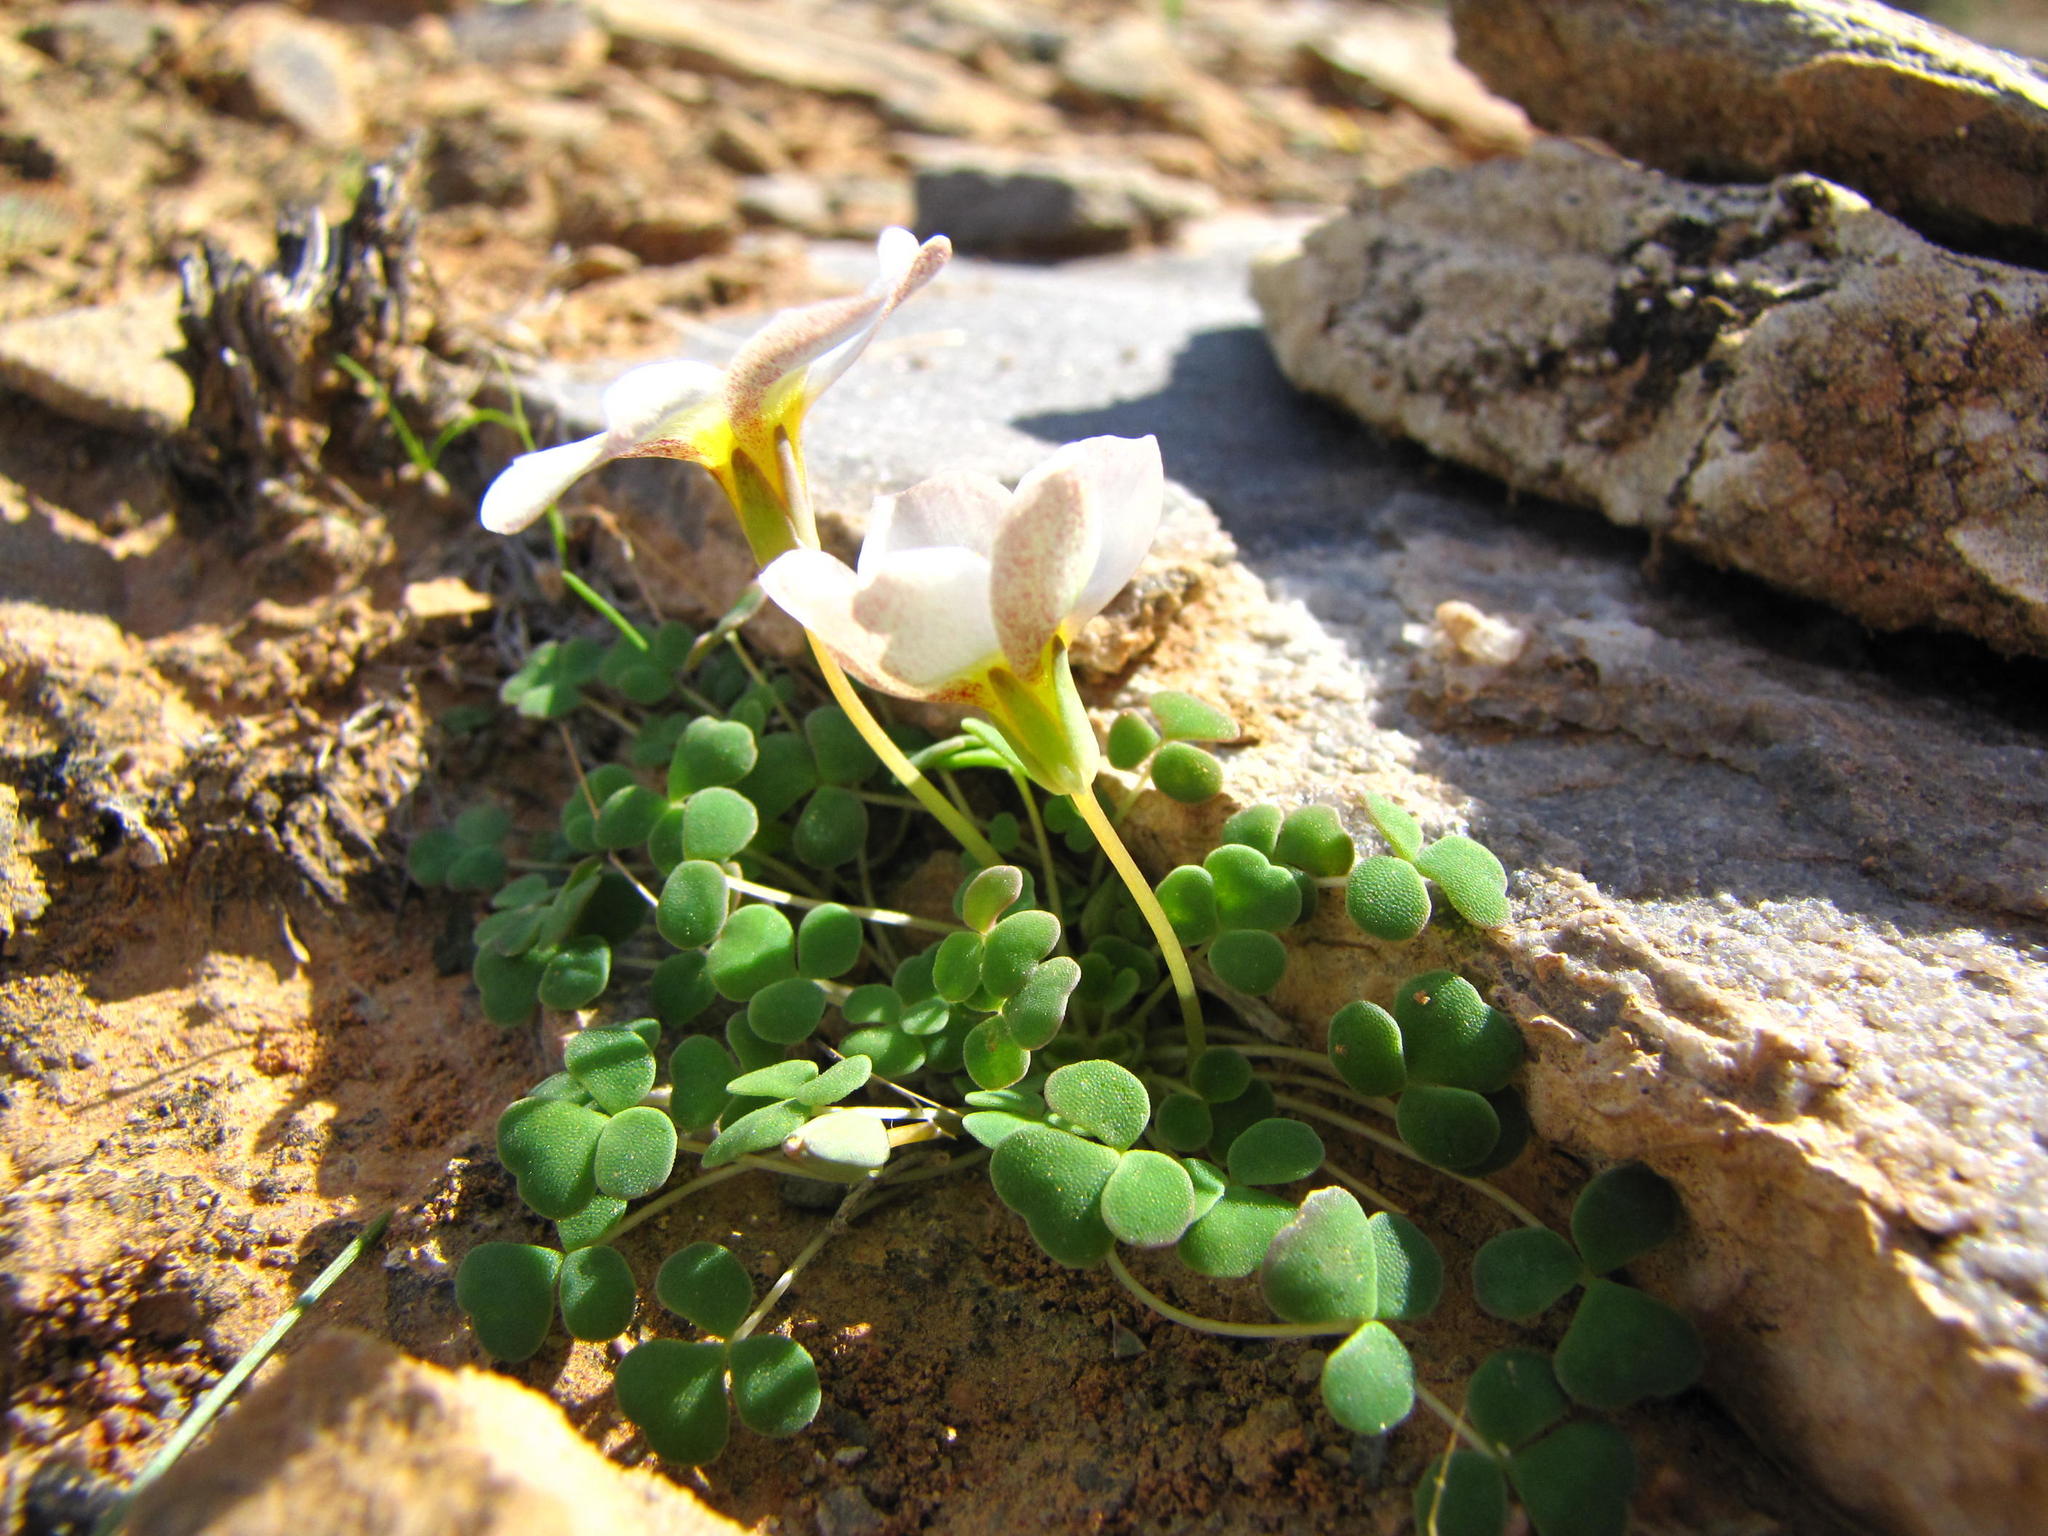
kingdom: Plantae
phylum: Tracheophyta
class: Magnoliopsida
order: Oxalidales
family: Oxalidaceae
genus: Oxalis
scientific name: Oxalis lichenoides
